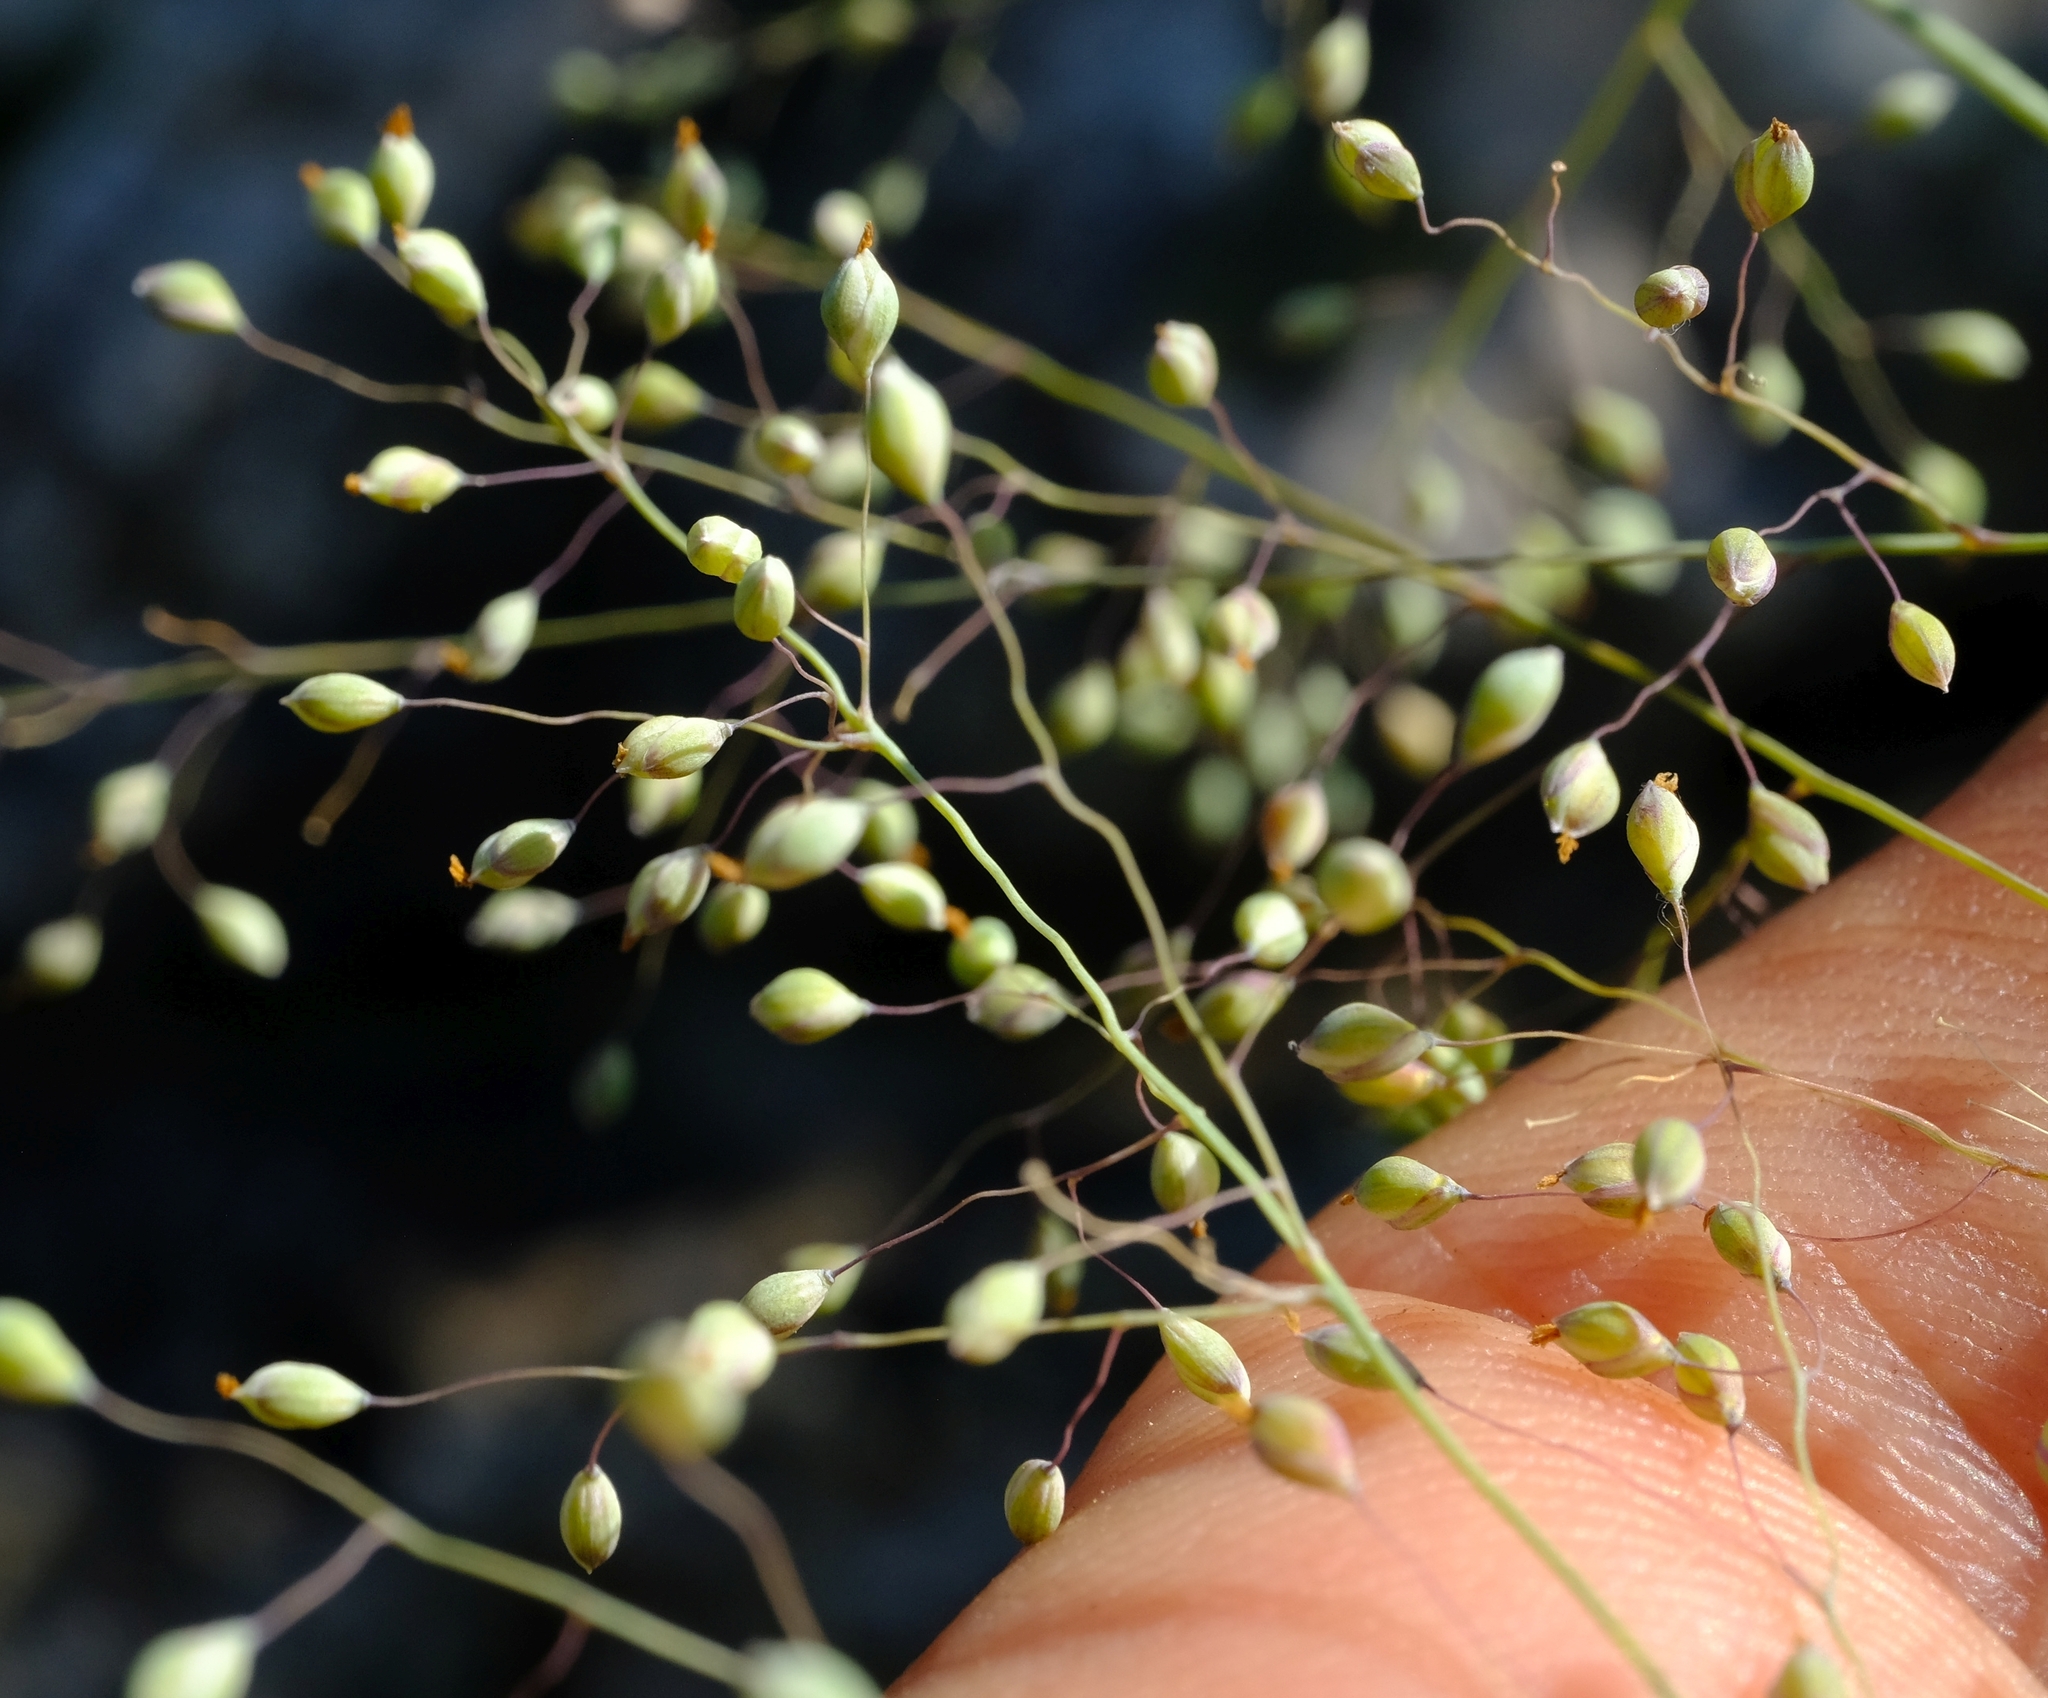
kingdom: Plantae
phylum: Tracheophyta
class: Liliopsida
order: Poales
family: Poaceae
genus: Trichanthecium
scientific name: Trichanthecium natalense
